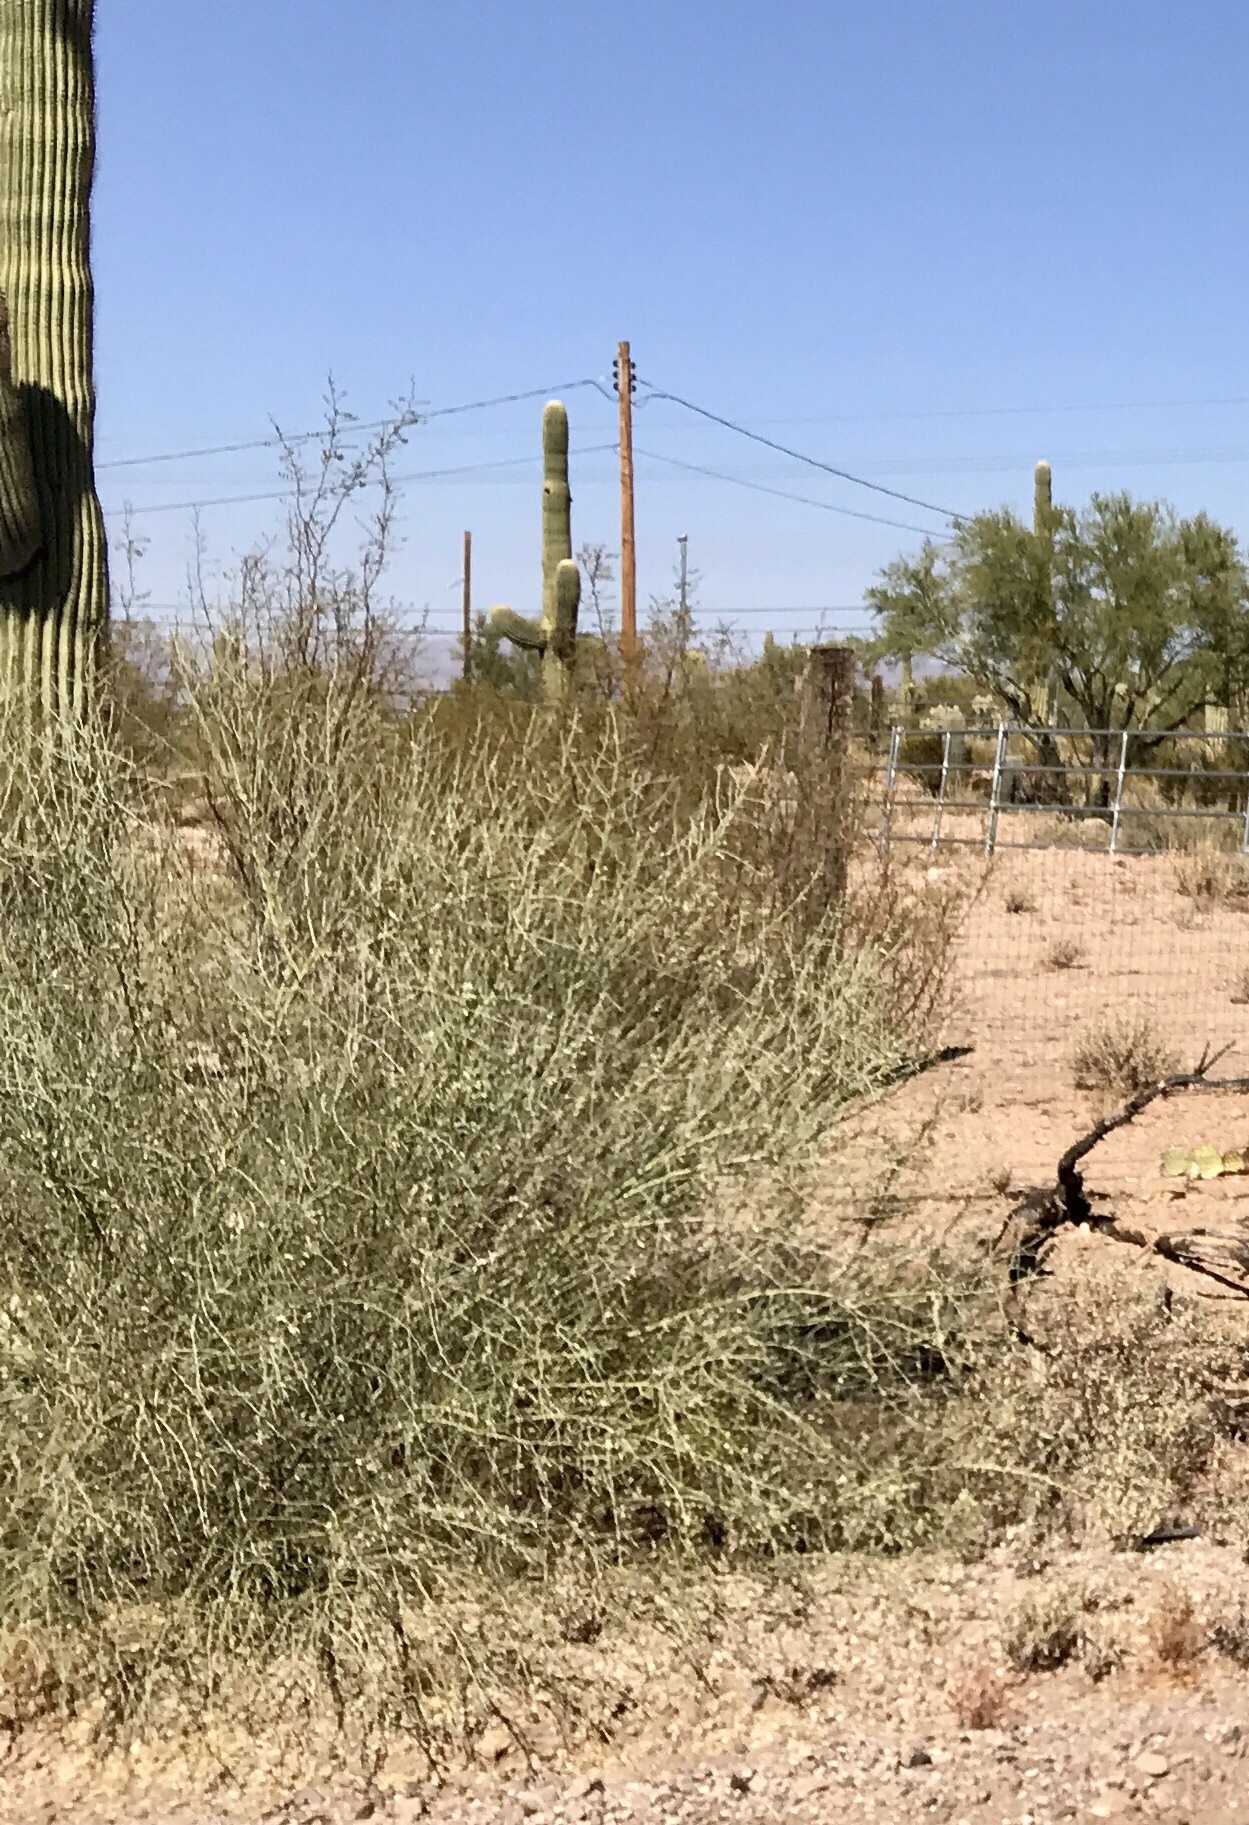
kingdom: Plantae
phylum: Tracheophyta
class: Magnoliopsida
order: Fabales
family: Fabaceae
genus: Parkinsonia
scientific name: Parkinsonia florida
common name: Blue paloverde
